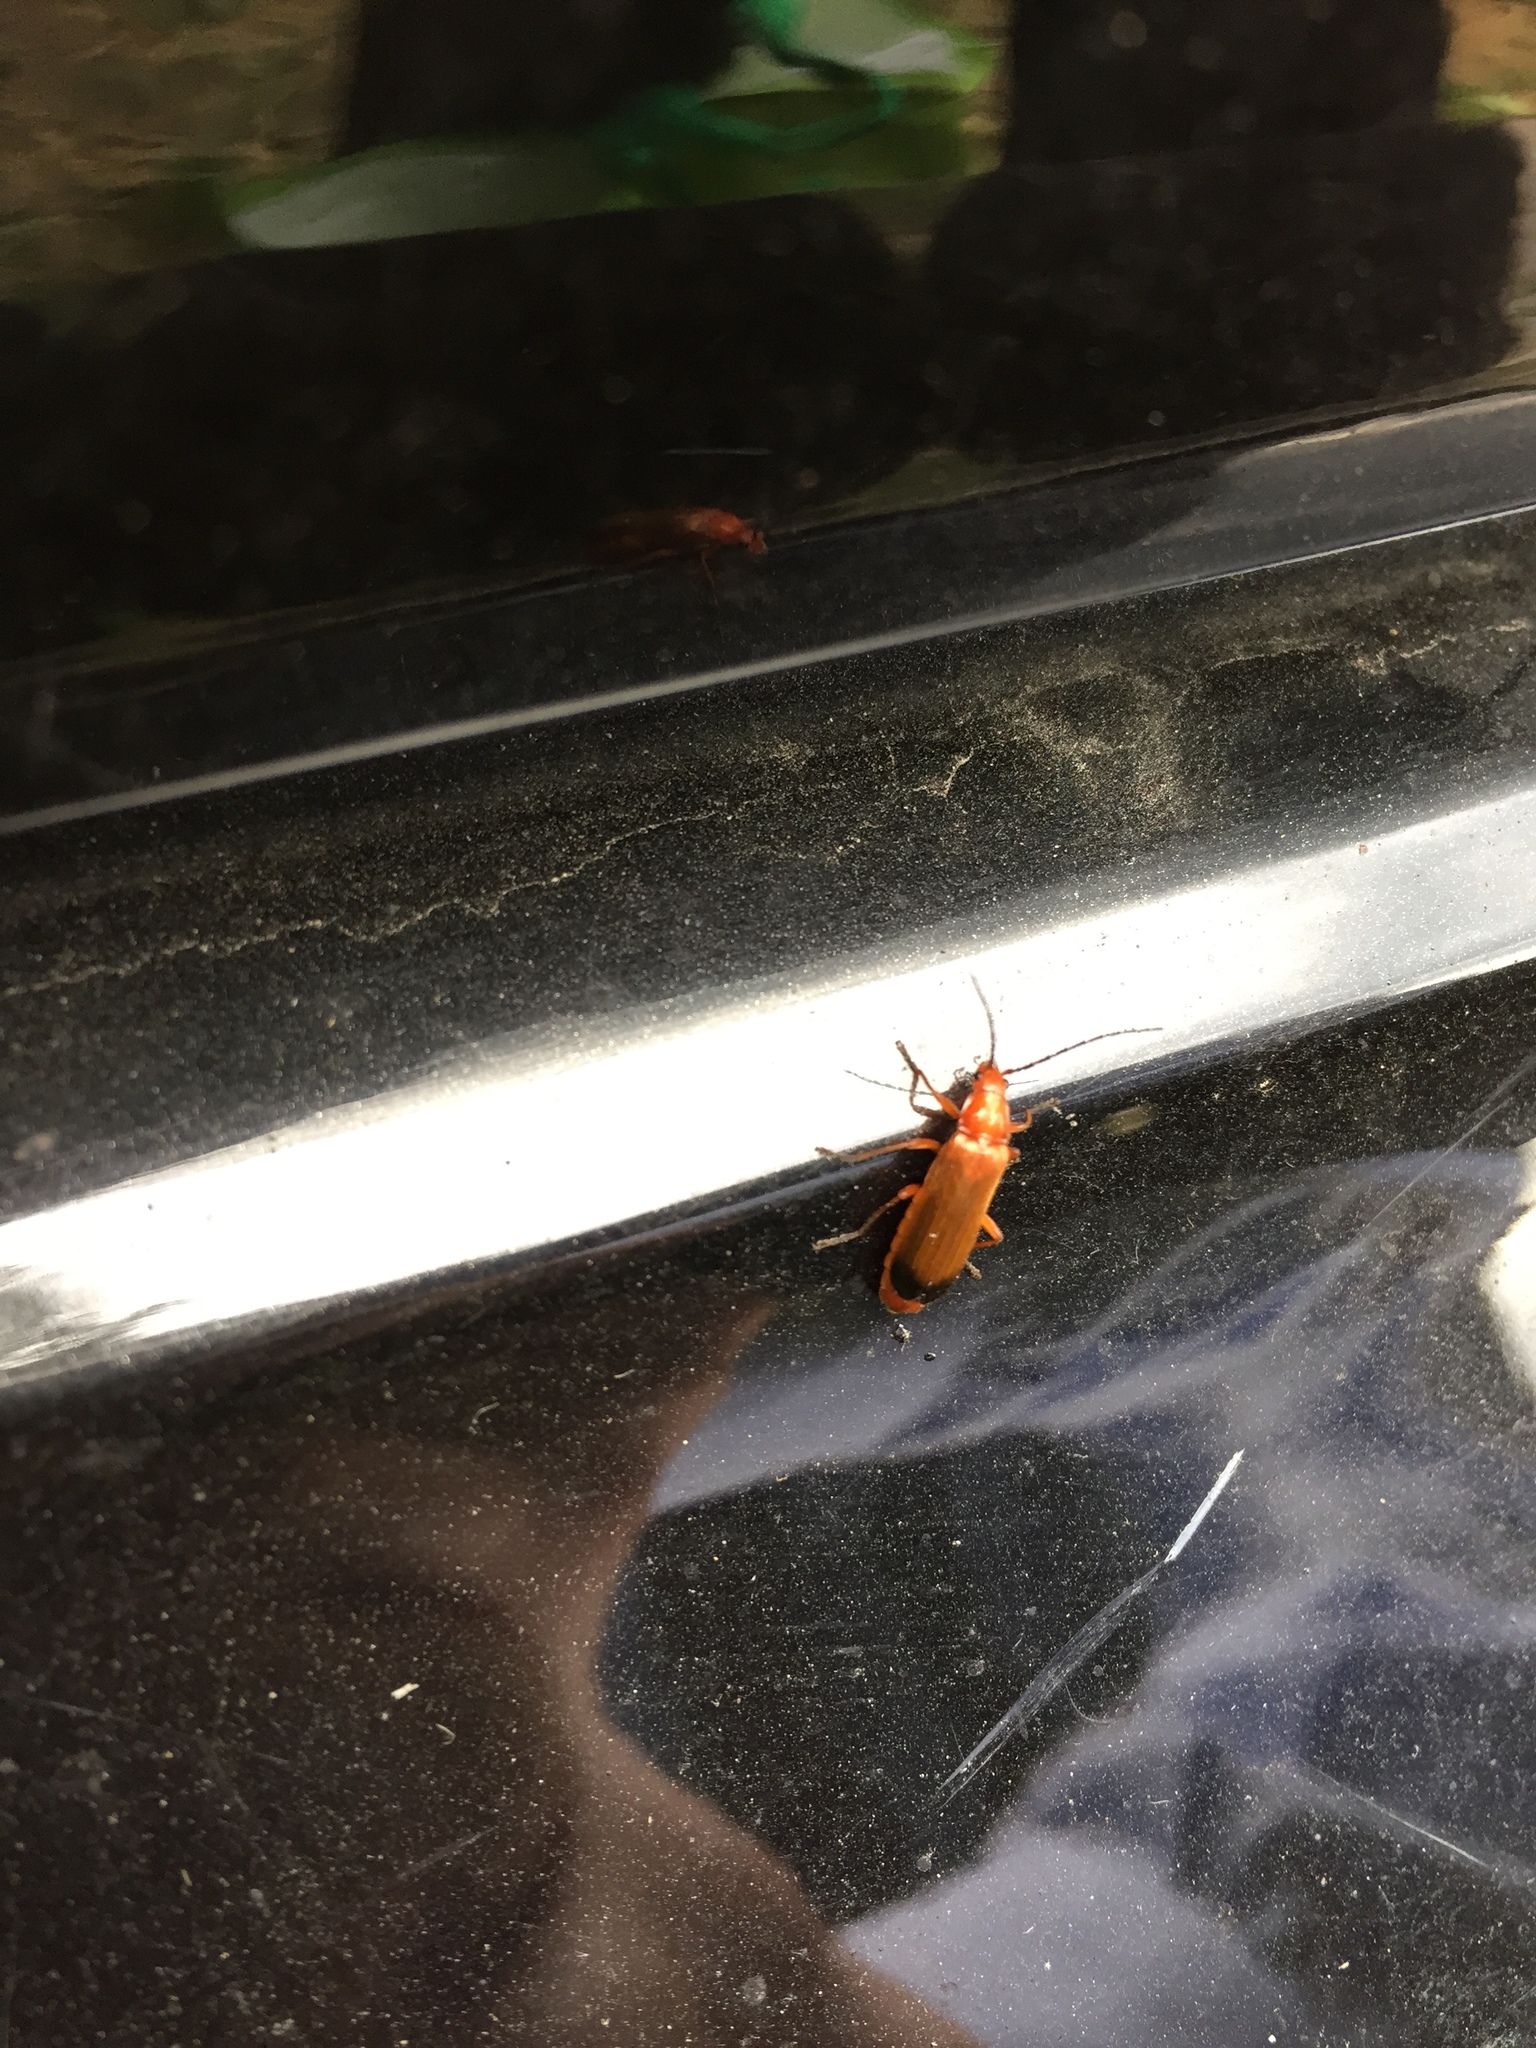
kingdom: Animalia
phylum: Arthropoda
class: Insecta
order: Coleoptera
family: Cantharidae
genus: Rhagonycha
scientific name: Rhagonycha fulva
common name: Common red soldier beetle
